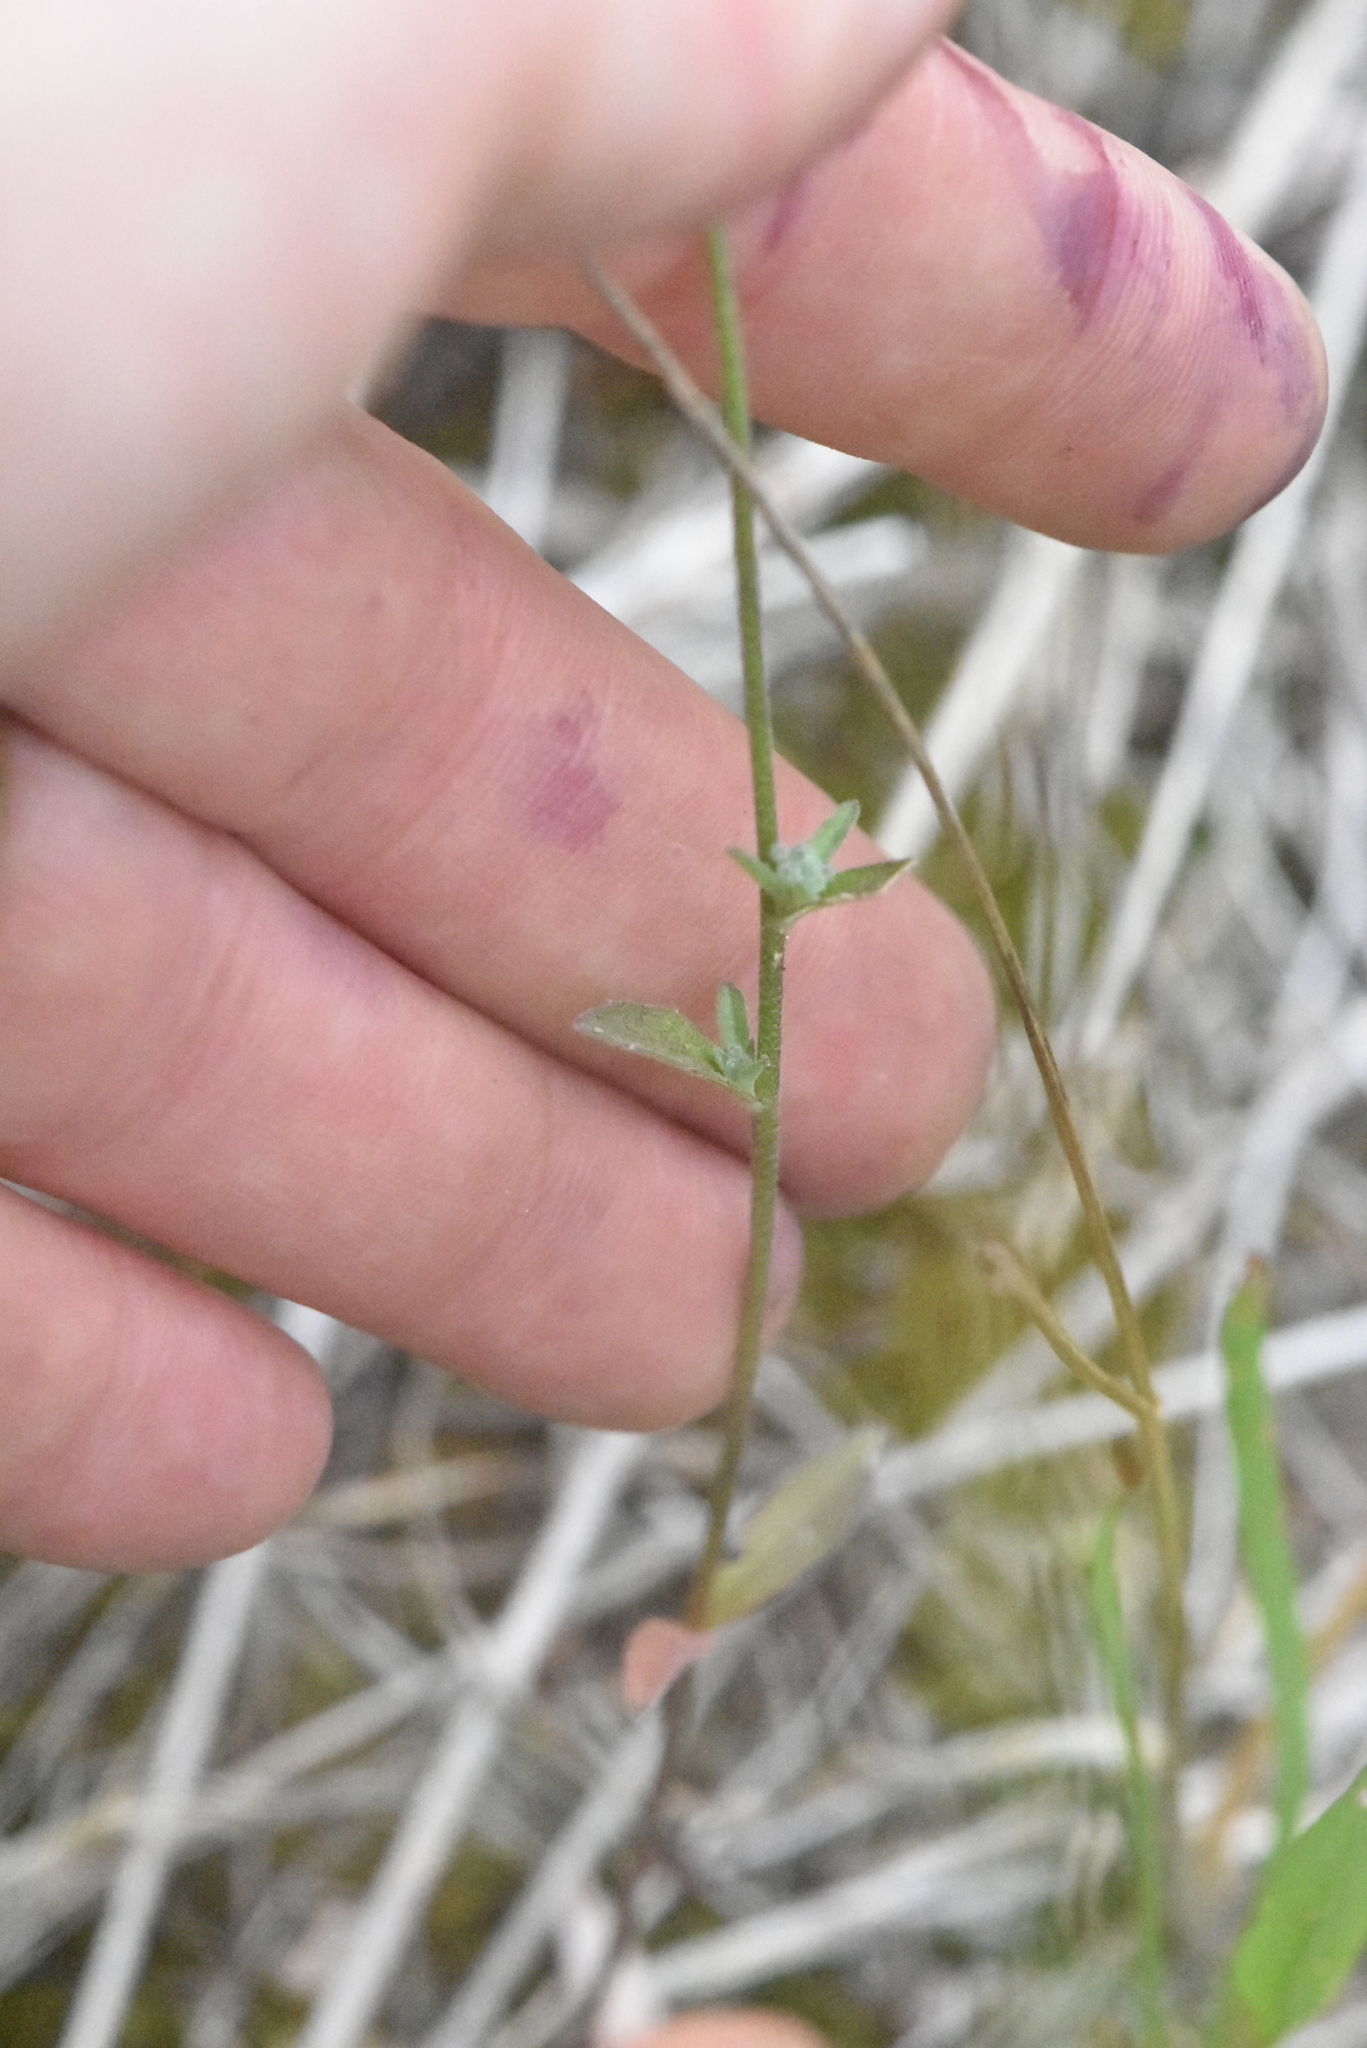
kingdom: Plantae
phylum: Tracheophyta
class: Magnoliopsida
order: Brassicales
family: Brassicaceae
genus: Berteroa
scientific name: Berteroa incana
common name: Hoary alison
